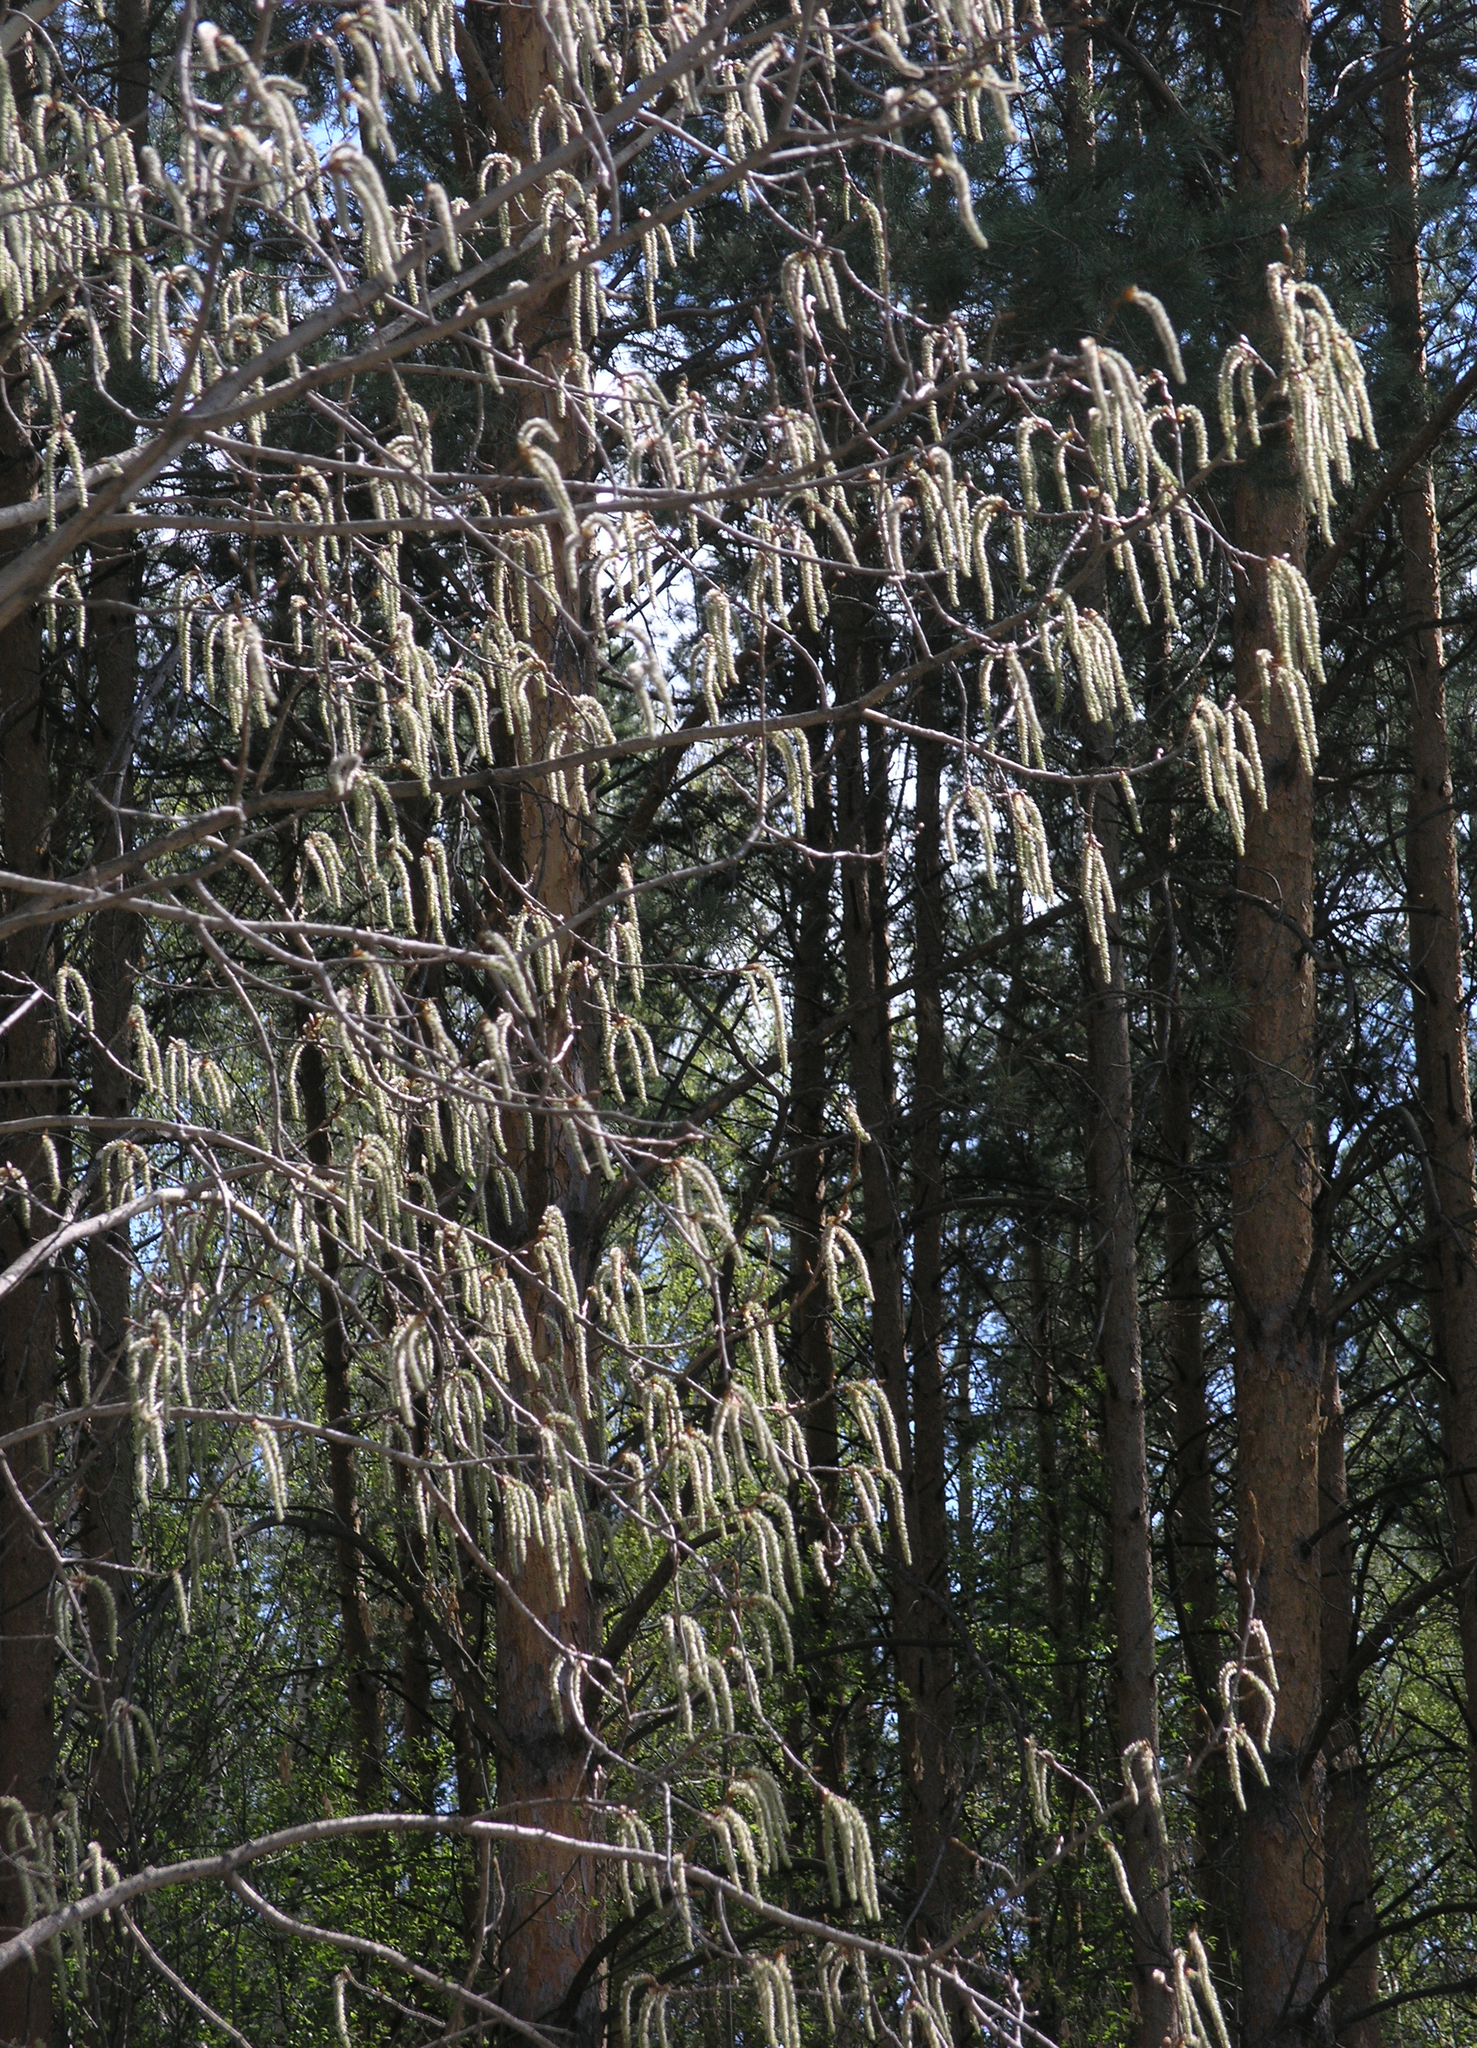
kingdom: Plantae
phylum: Tracheophyta
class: Magnoliopsida
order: Malpighiales
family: Salicaceae
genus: Populus
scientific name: Populus tremula
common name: European aspen
